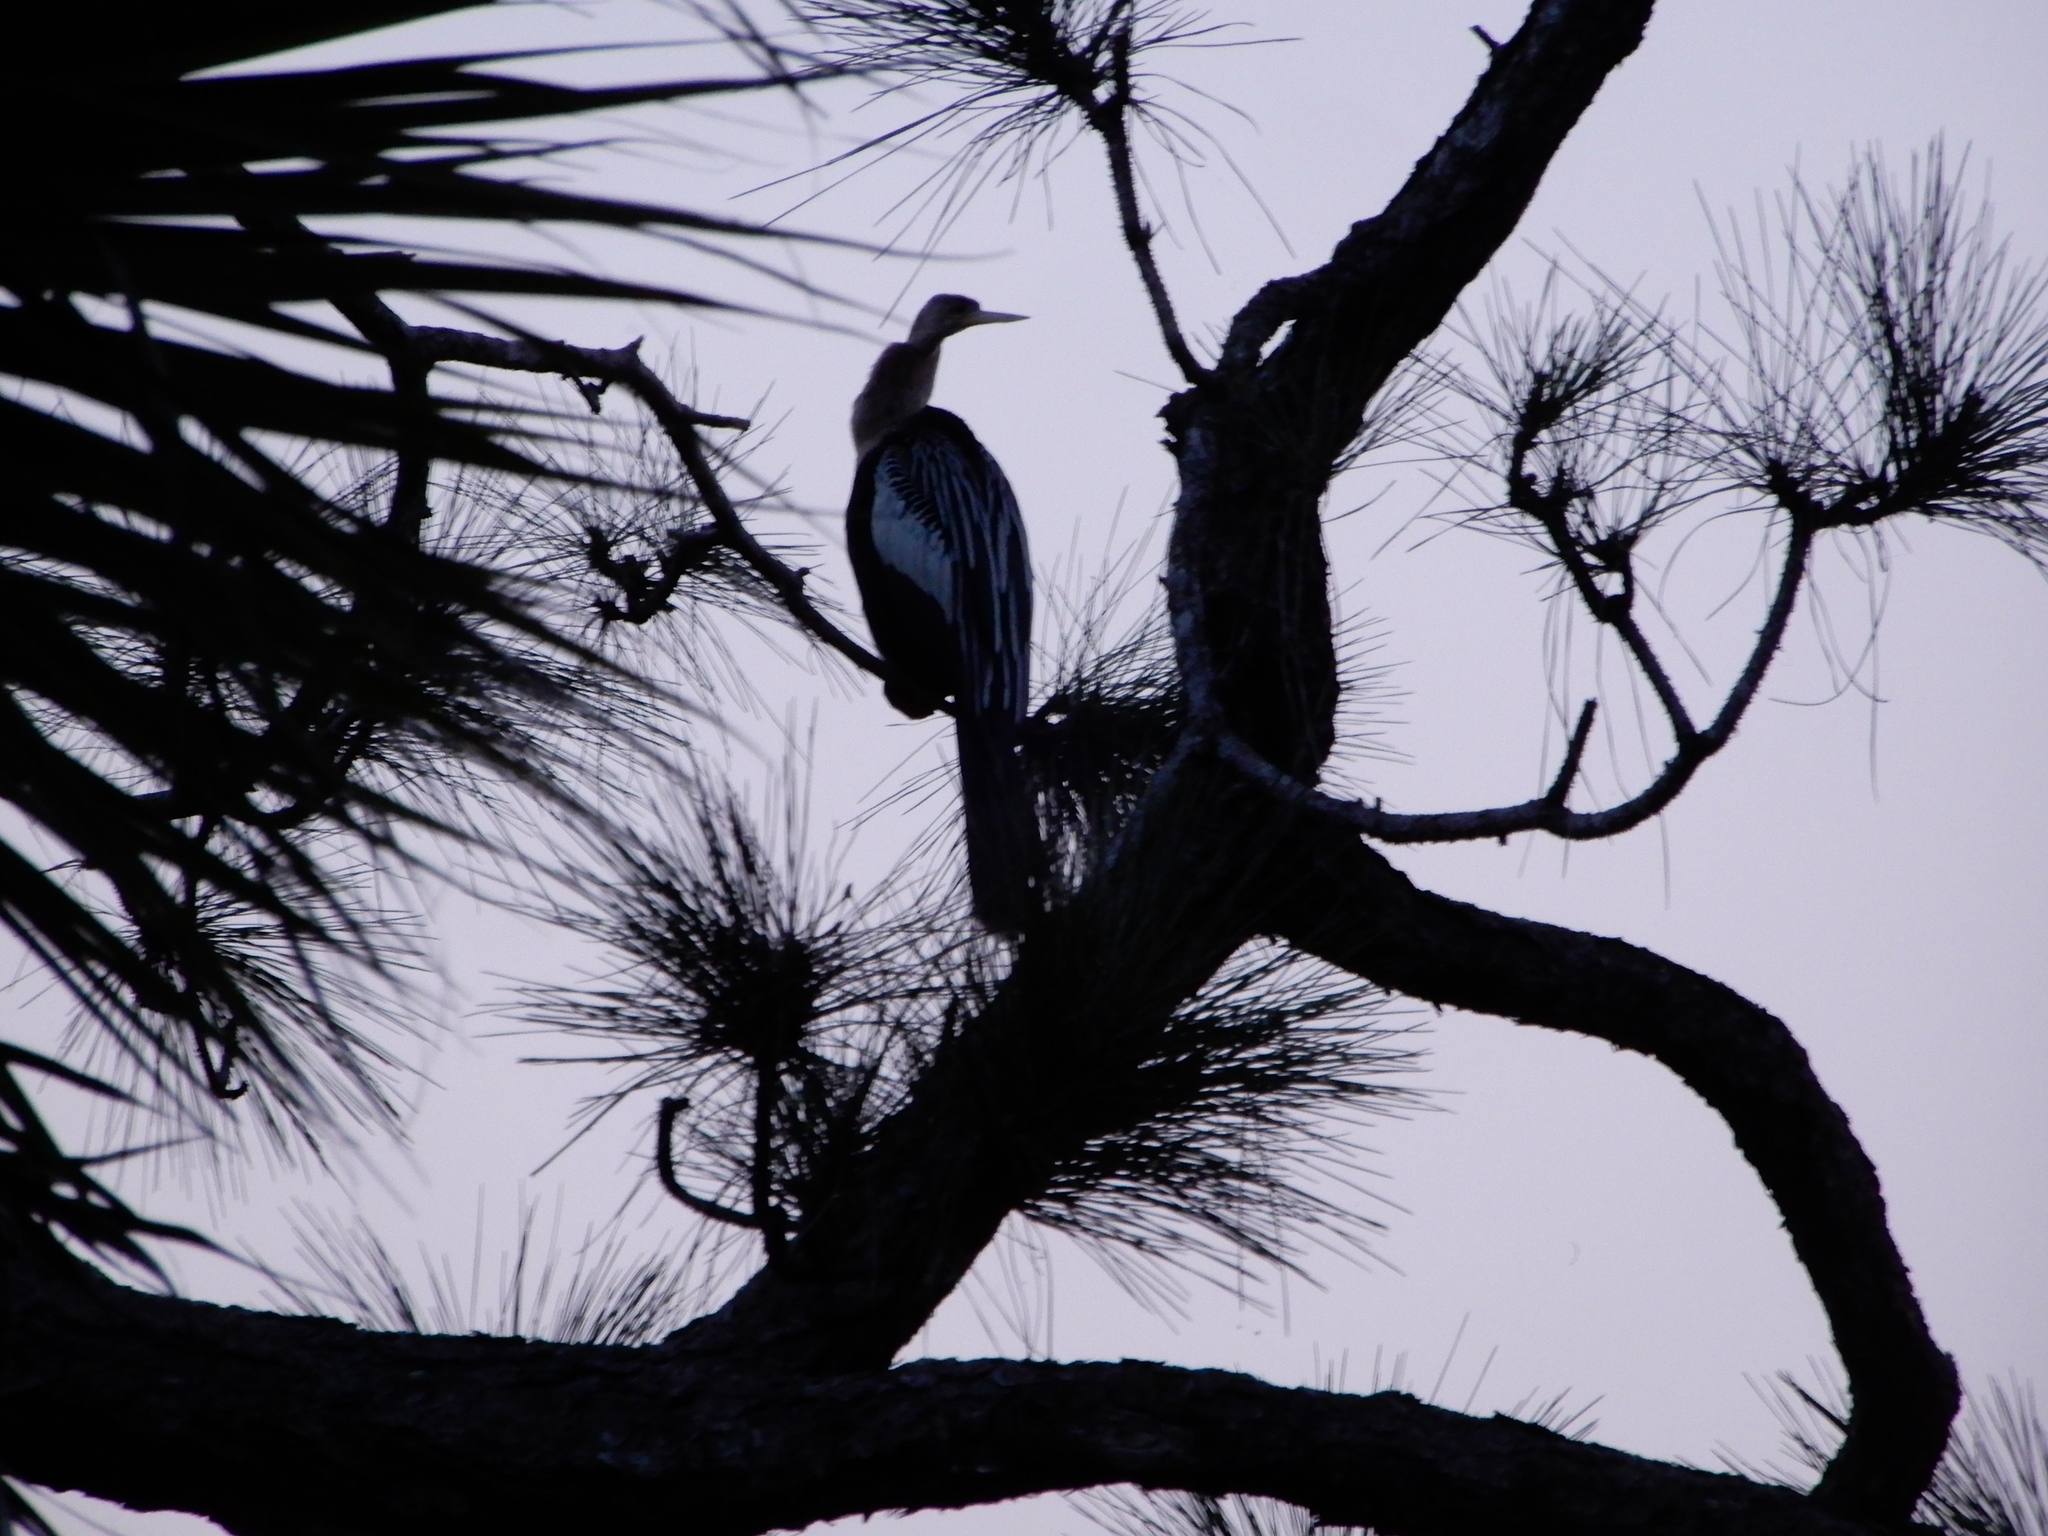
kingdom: Animalia
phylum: Chordata
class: Aves
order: Suliformes
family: Anhingidae
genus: Anhinga
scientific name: Anhinga anhinga
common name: Anhinga
